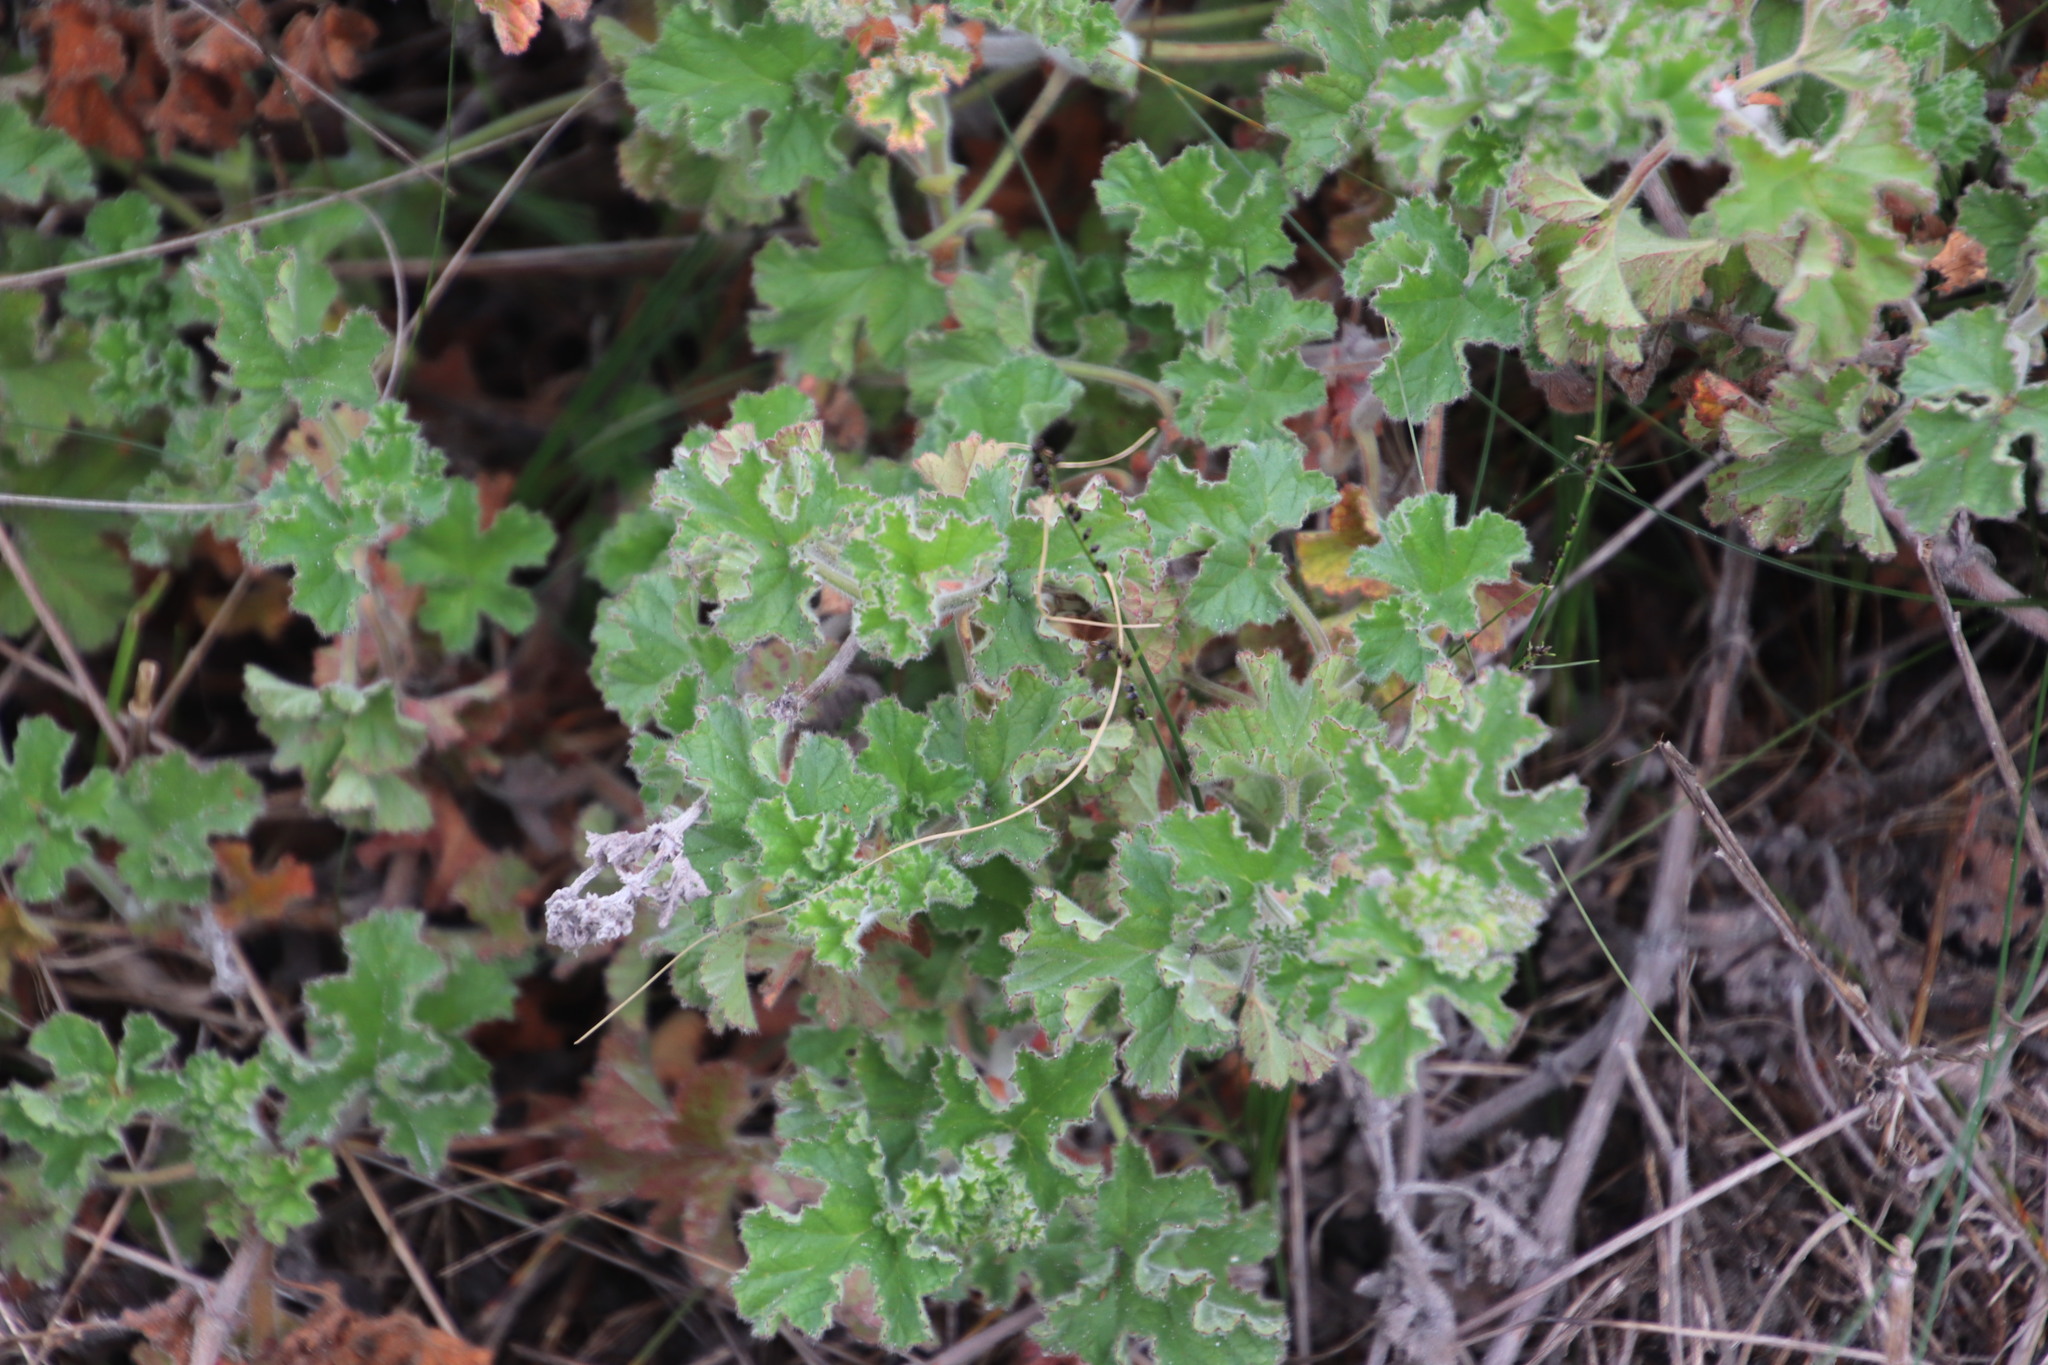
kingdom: Plantae
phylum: Tracheophyta
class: Magnoliopsida
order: Geraniales
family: Geraniaceae
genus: Pelargonium
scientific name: Pelargonium capitatum
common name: Rose scented geranium
